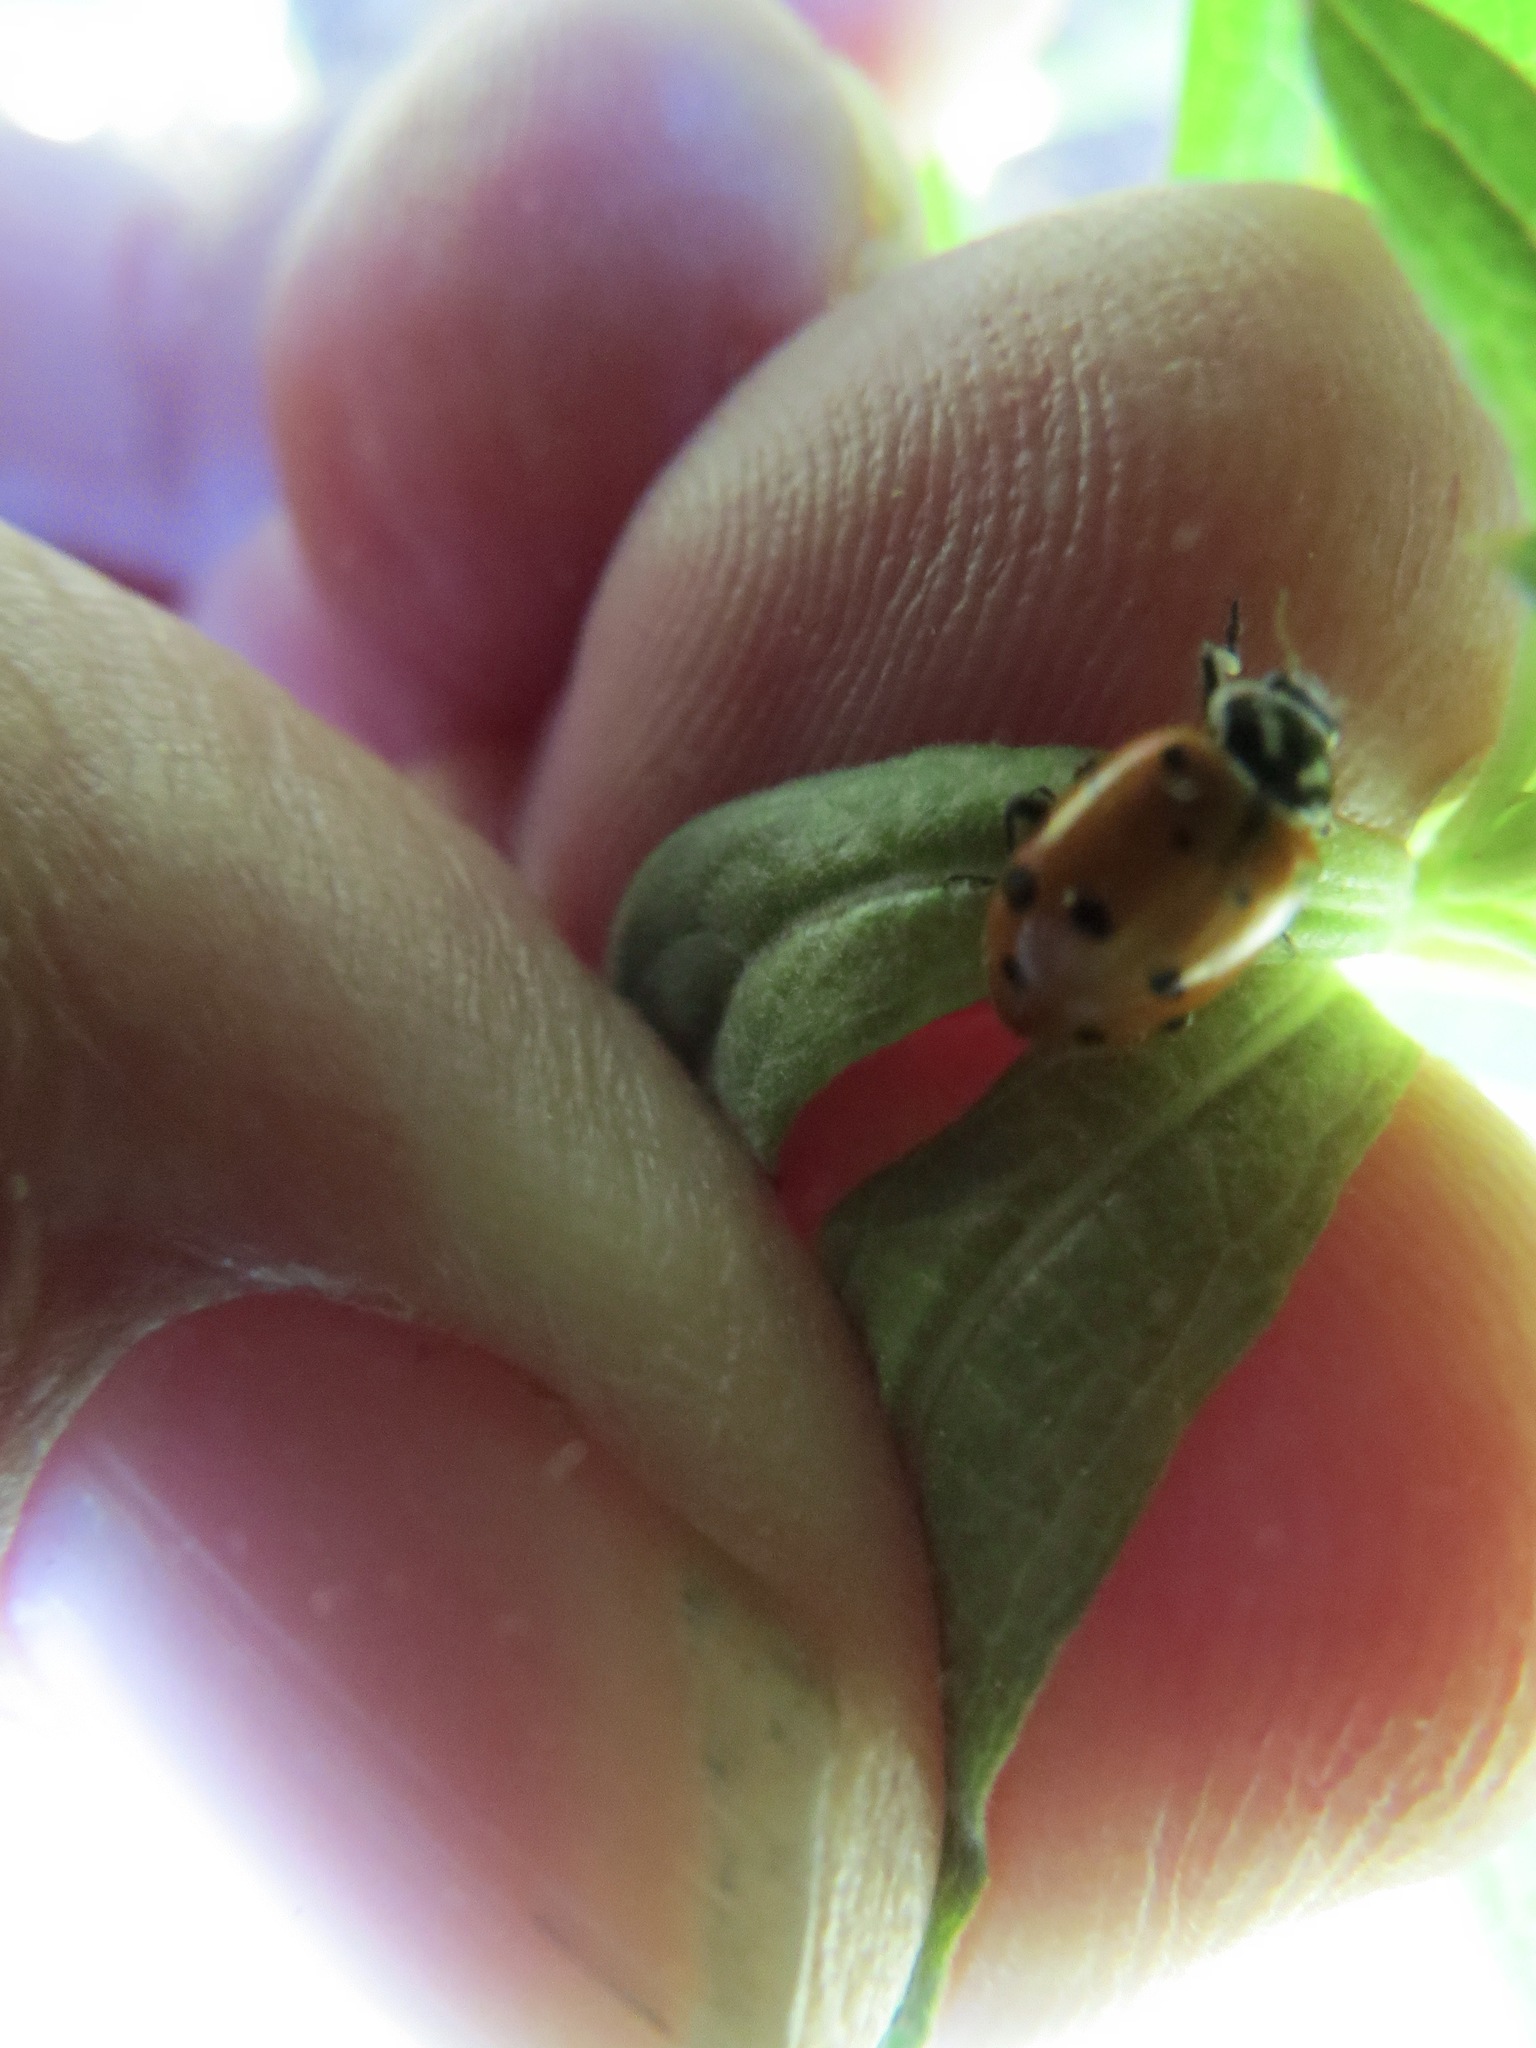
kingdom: Animalia
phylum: Arthropoda
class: Insecta
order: Coleoptera
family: Coccinellidae
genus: Hippodamia
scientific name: Hippodamia convergens
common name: Convergent lady beetle
